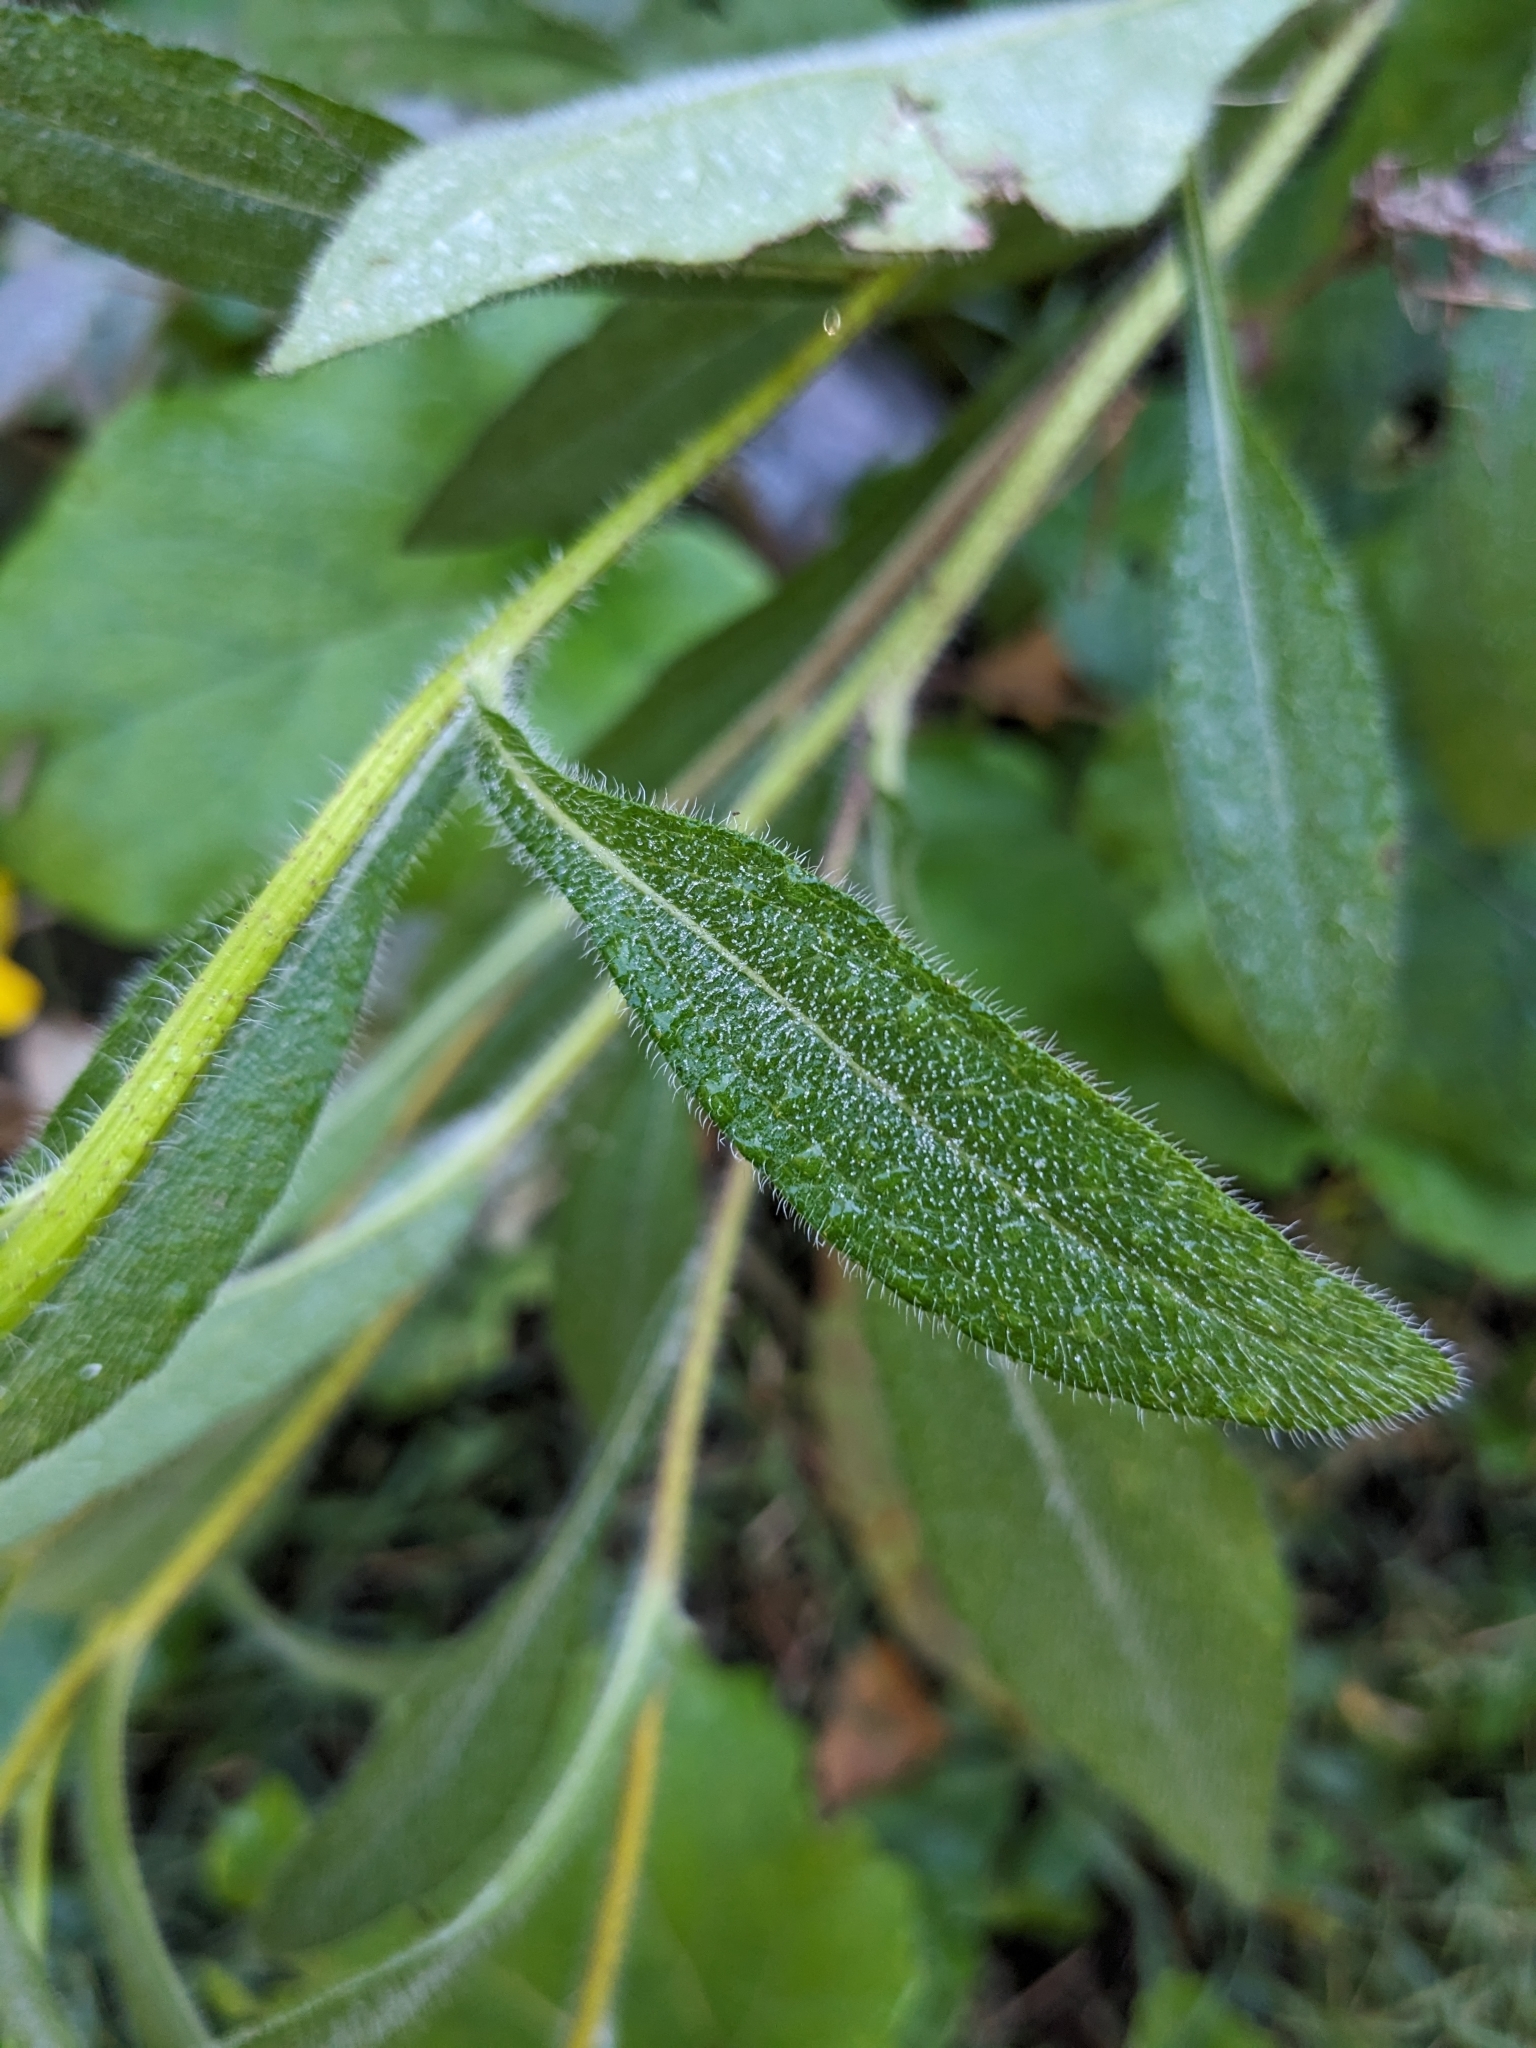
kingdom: Plantae
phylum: Tracheophyta
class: Magnoliopsida
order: Asterales
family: Asteraceae
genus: Rudbeckia
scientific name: Rudbeckia hirta
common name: Black-eyed-susan
